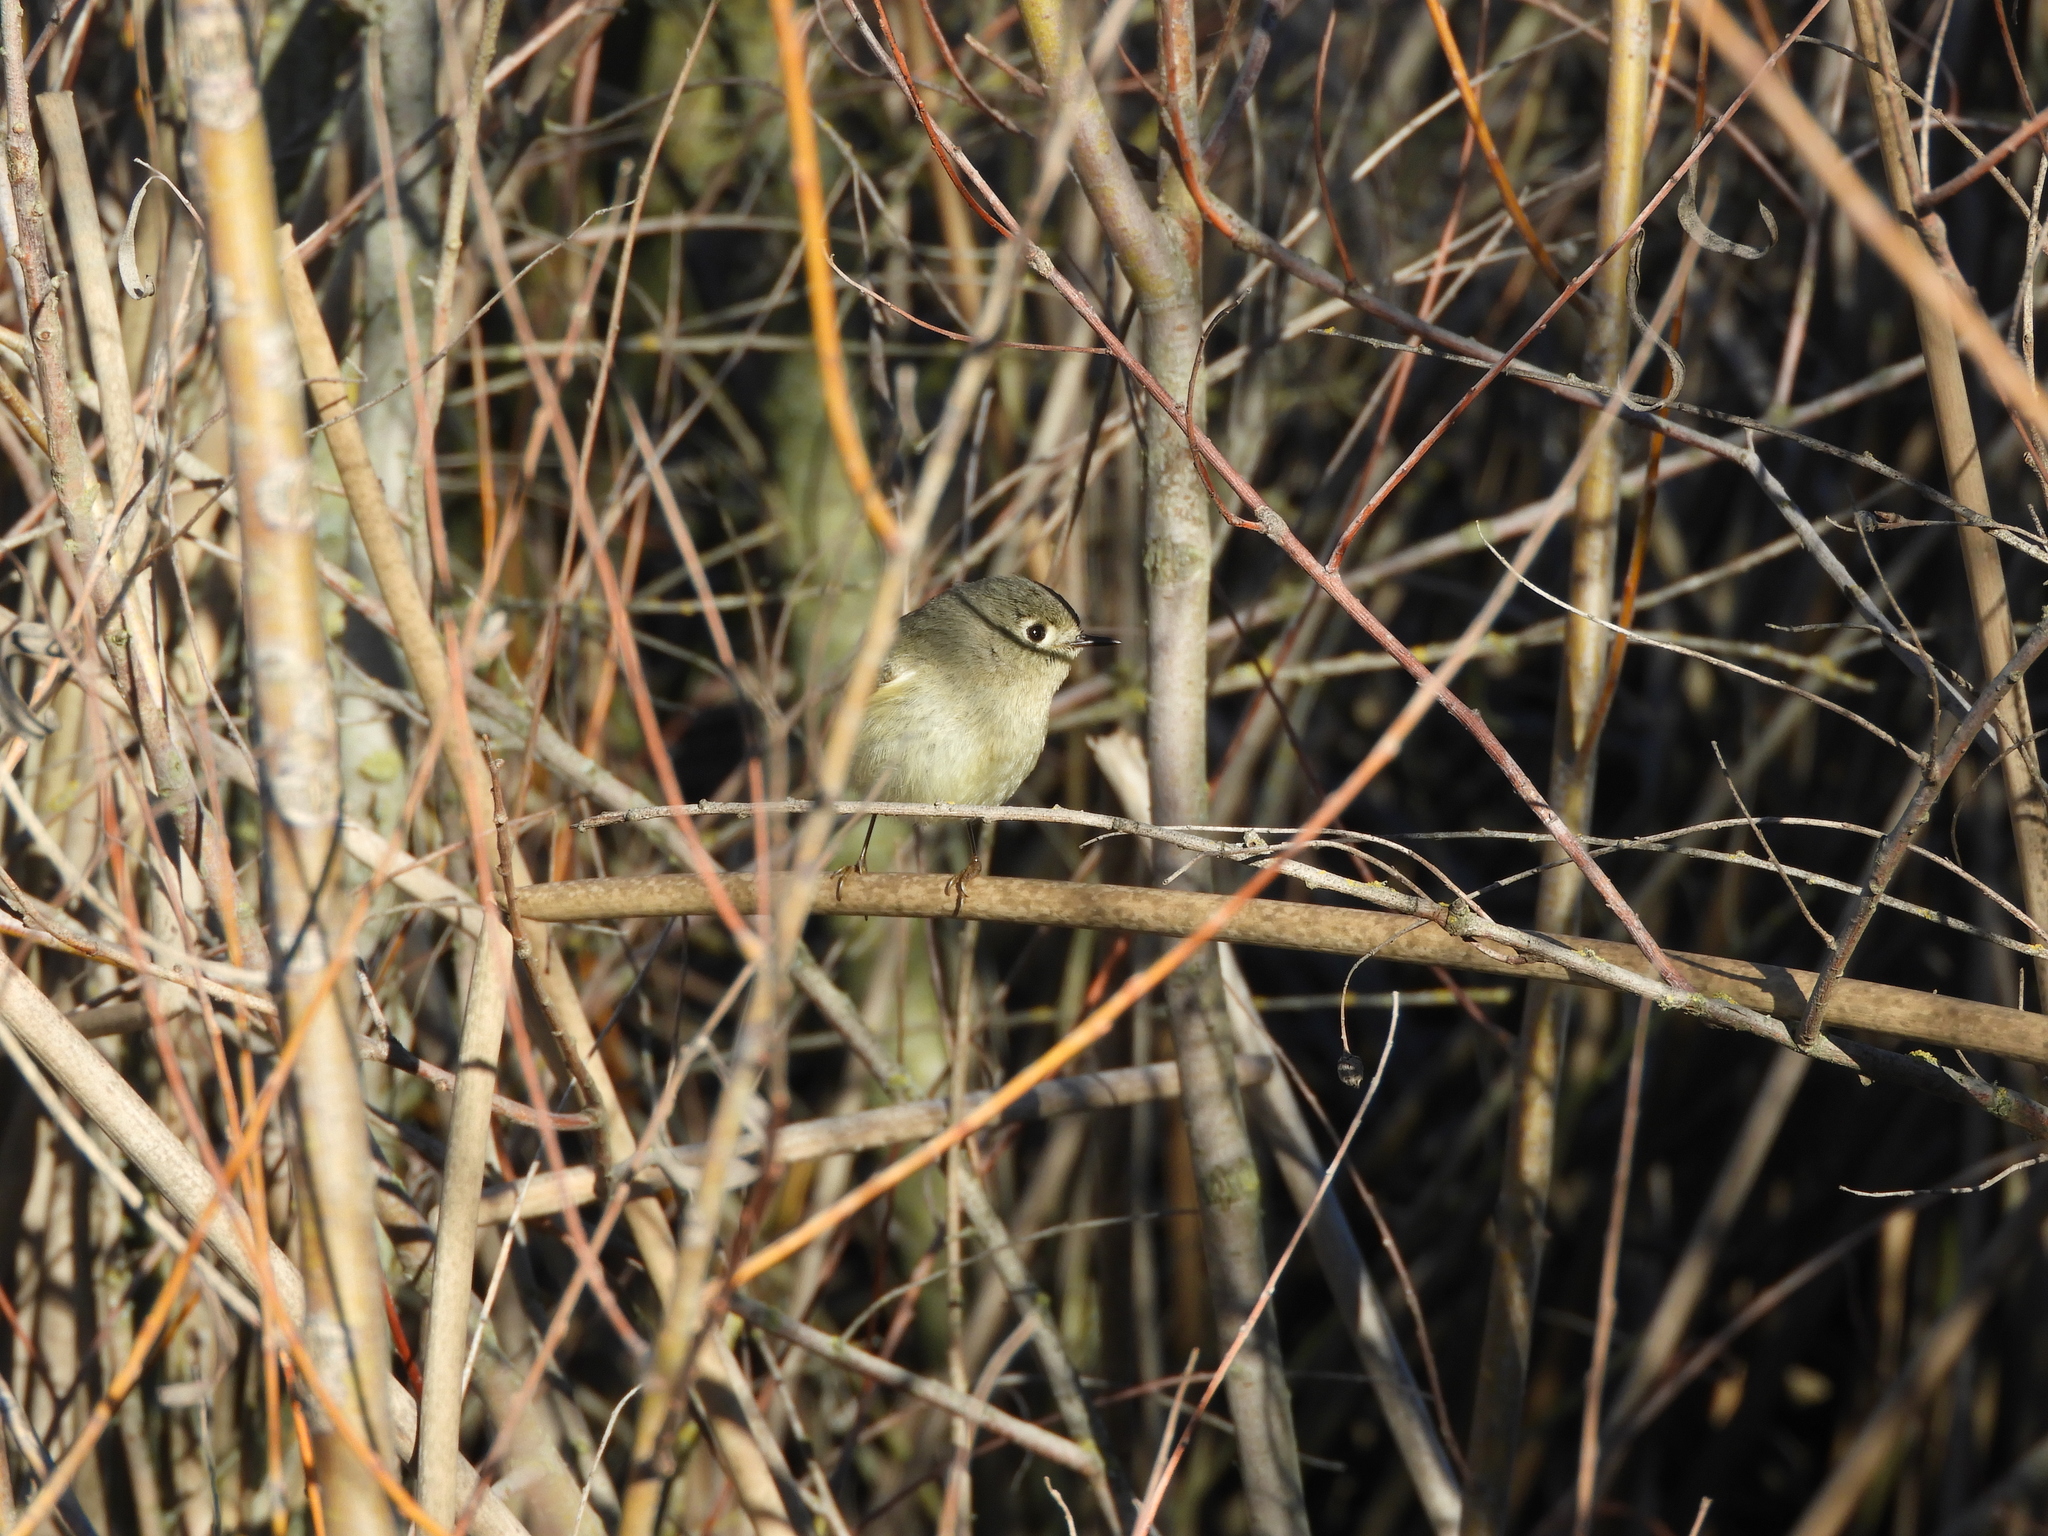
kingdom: Animalia
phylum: Chordata
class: Aves
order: Passeriformes
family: Regulidae
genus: Regulus
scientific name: Regulus calendula
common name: Ruby-crowned kinglet
